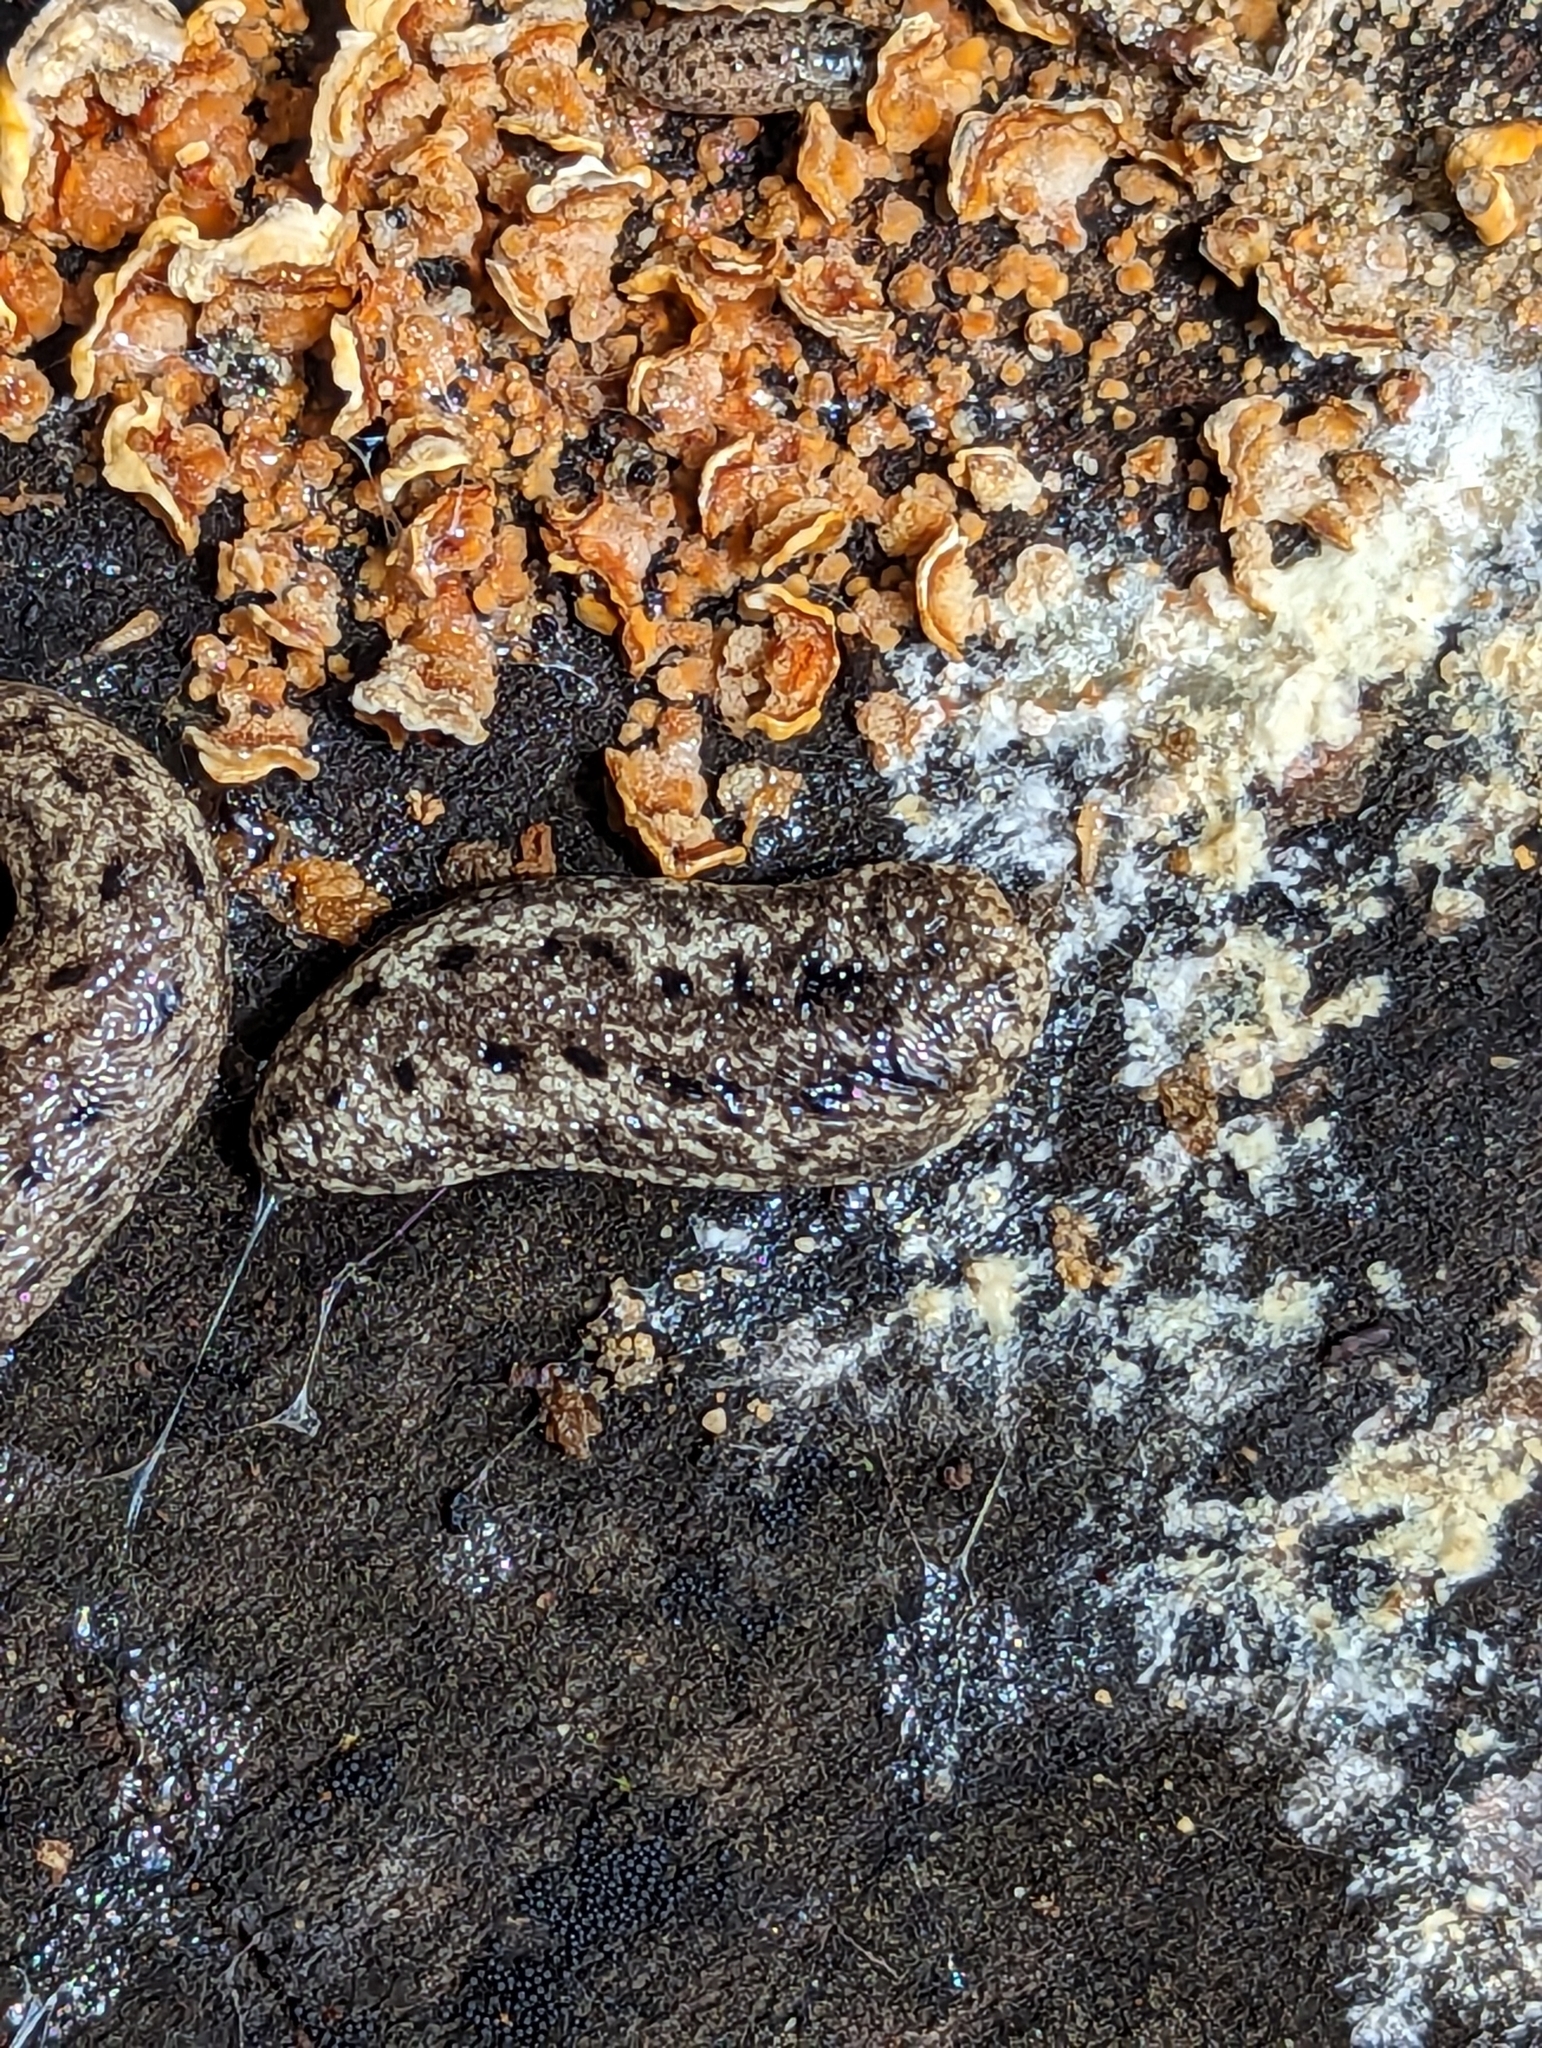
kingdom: Animalia
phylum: Mollusca
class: Gastropoda
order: Stylommatophora
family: Philomycidae
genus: Philomycus
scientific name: Philomycus carolinianus
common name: Carolina mantleslug
